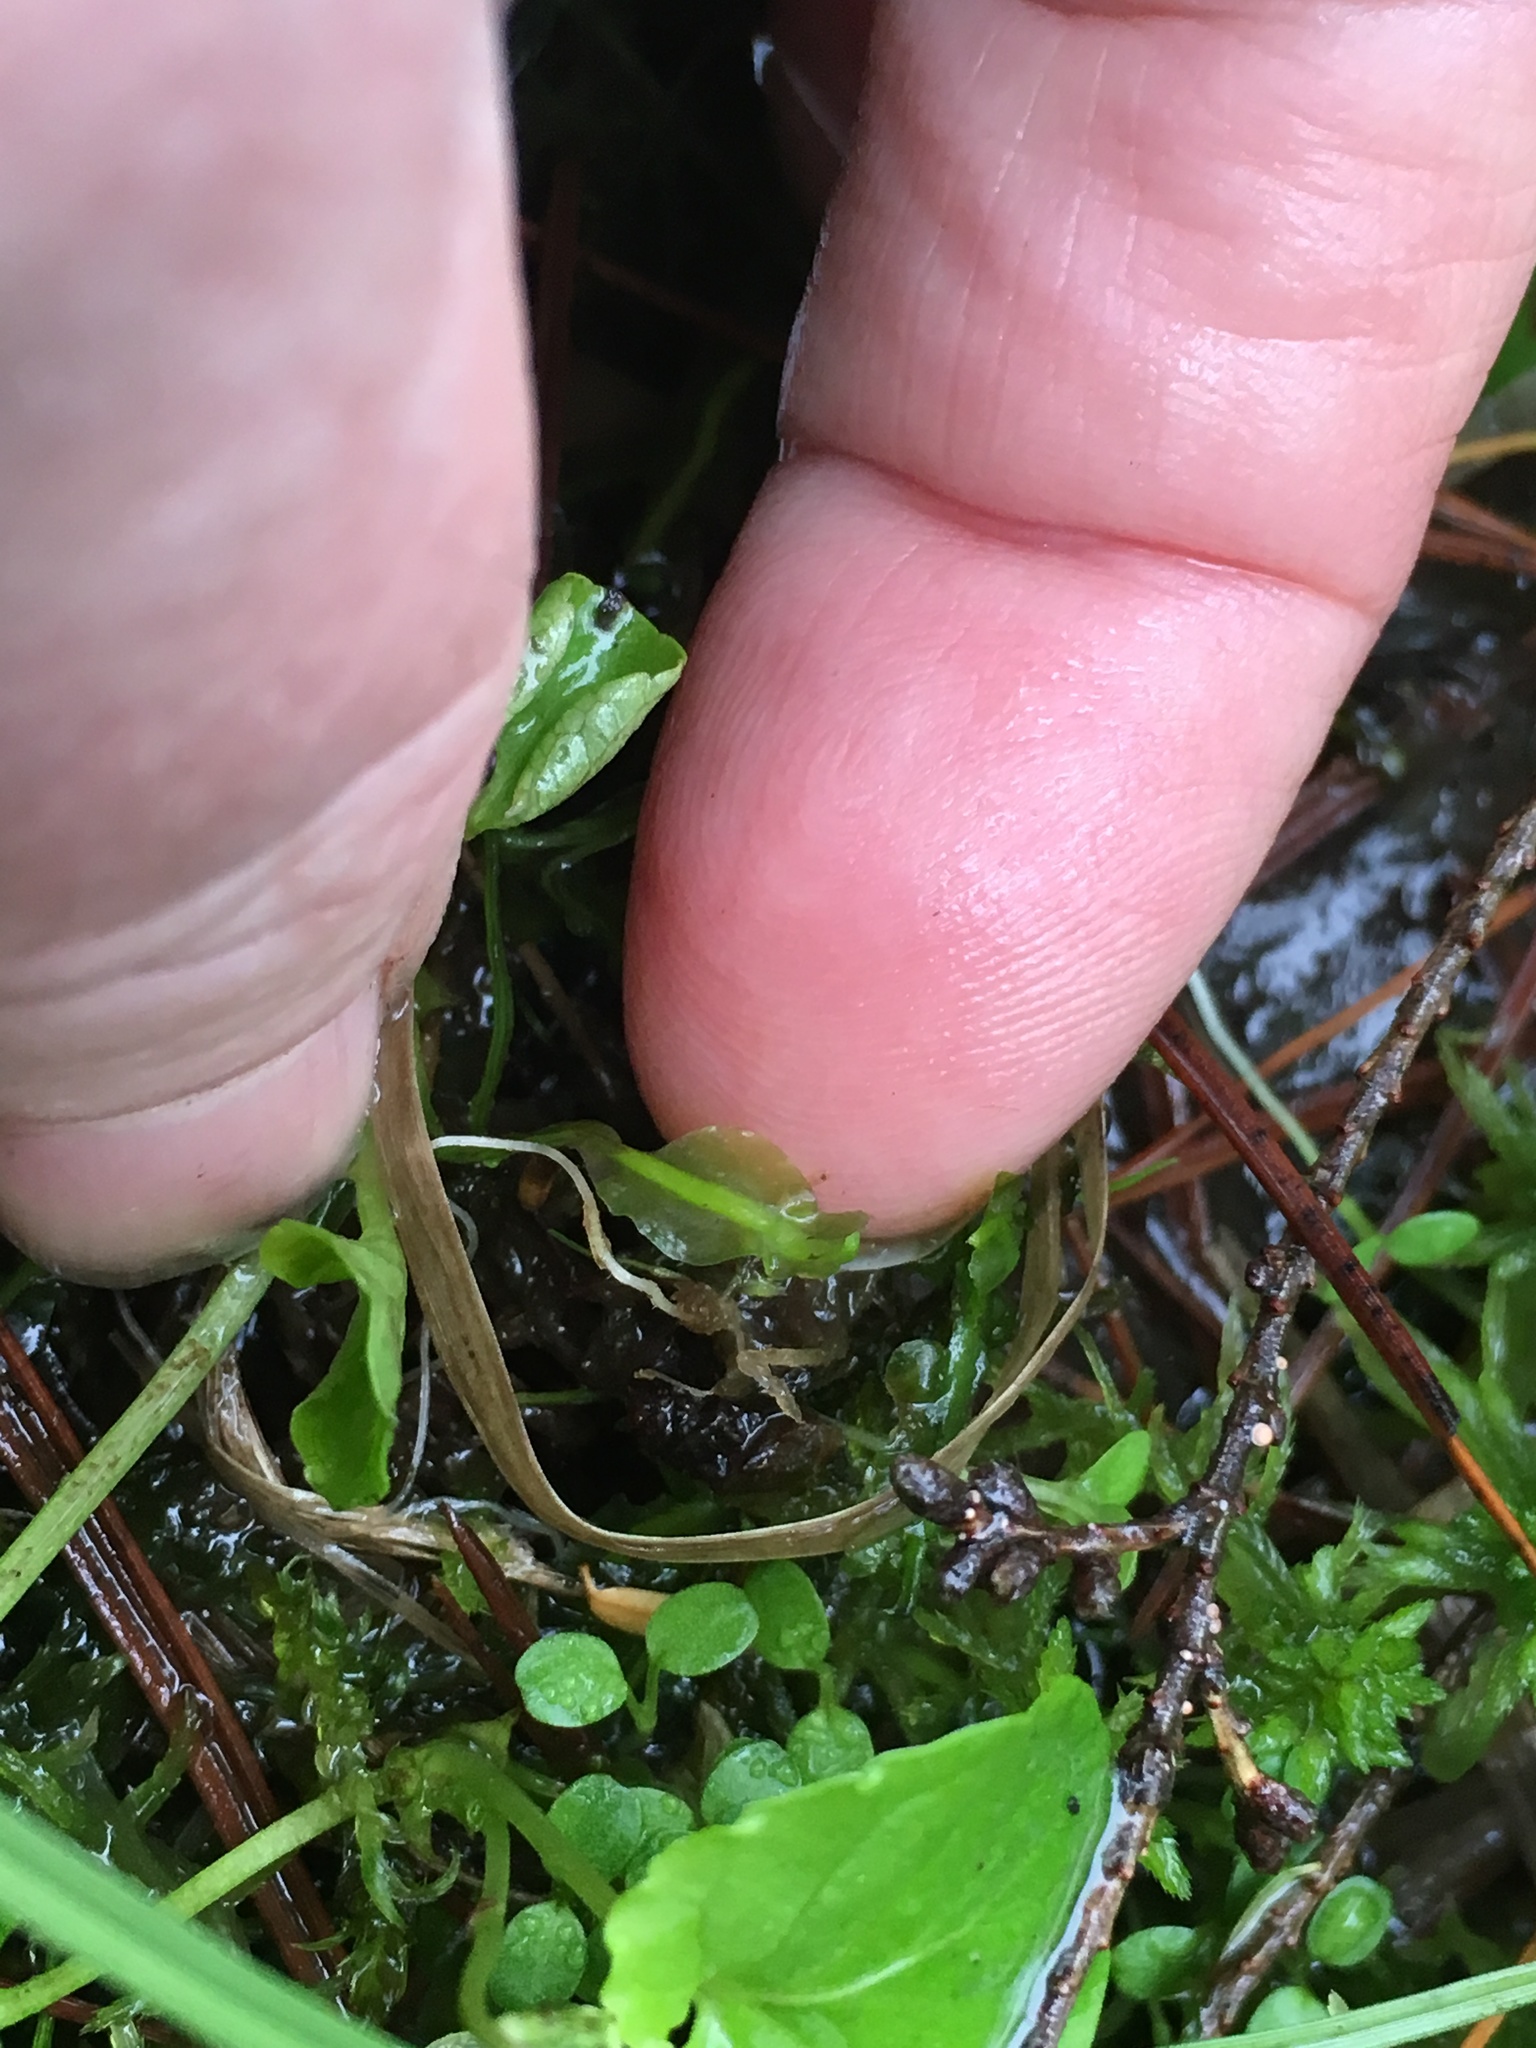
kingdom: Plantae
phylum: Marchantiophyta
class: Jungermanniopsida
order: Pallaviciniales
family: Pallaviciniaceae
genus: Pallavicinia
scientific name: Pallavicinia lyellii
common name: Veilwort
